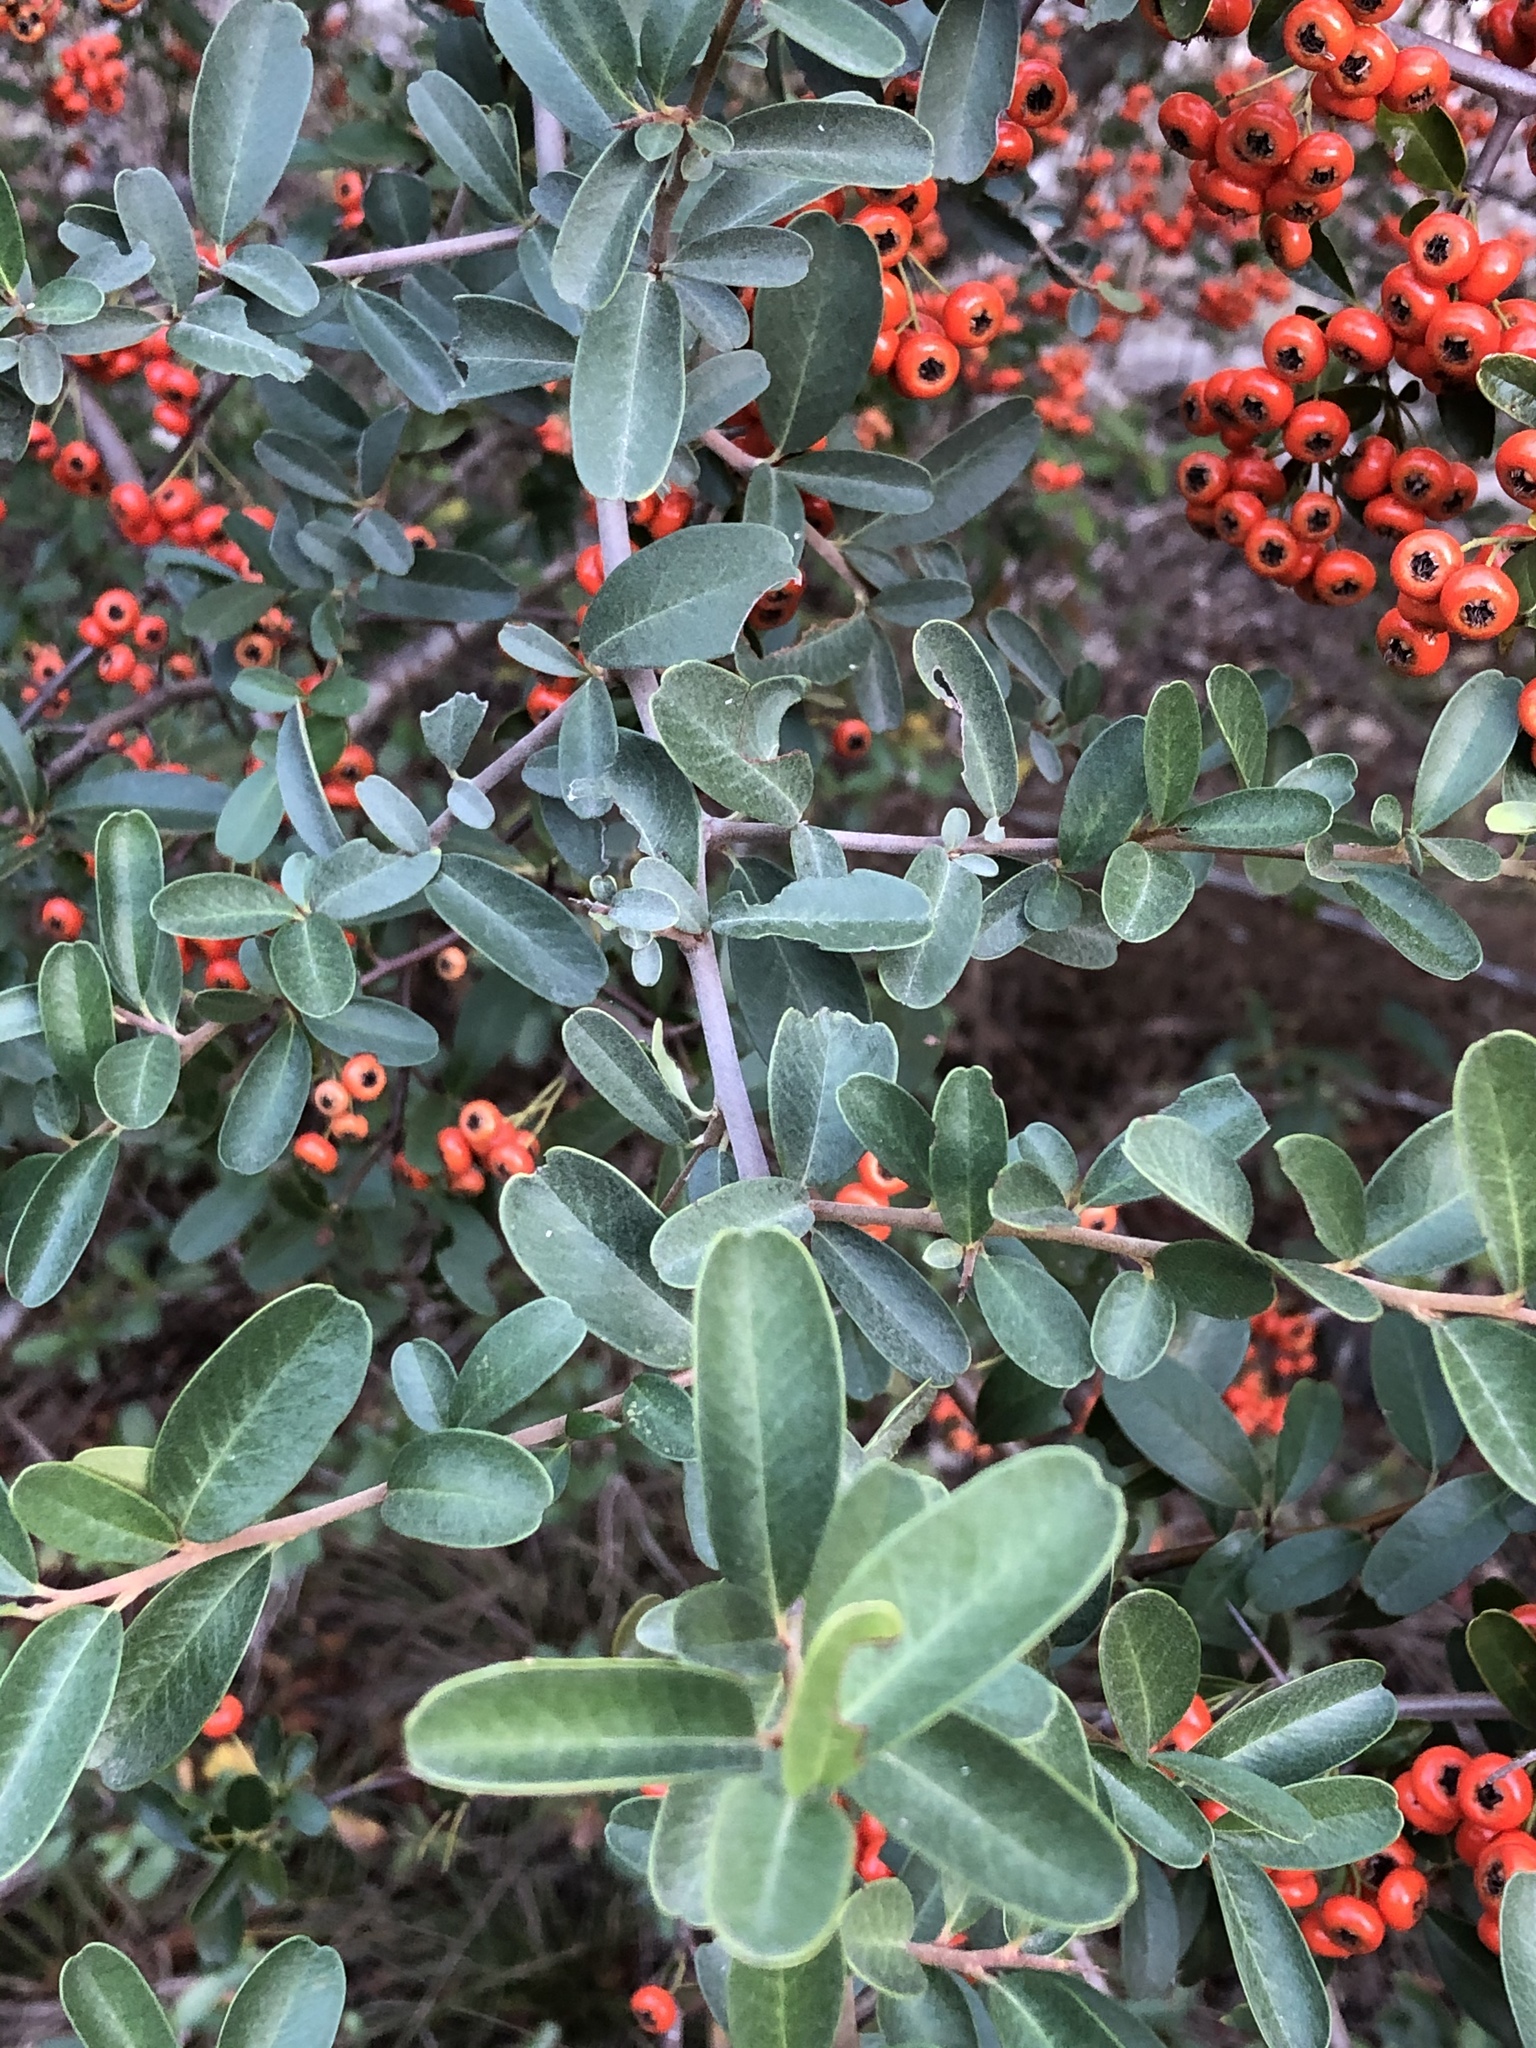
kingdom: Plantae
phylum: Tracheophyta
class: Magnoliopsida
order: Rosales
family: Rosaceae
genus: Pyracantha
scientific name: Pyracantha coccinea
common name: Firethorn
